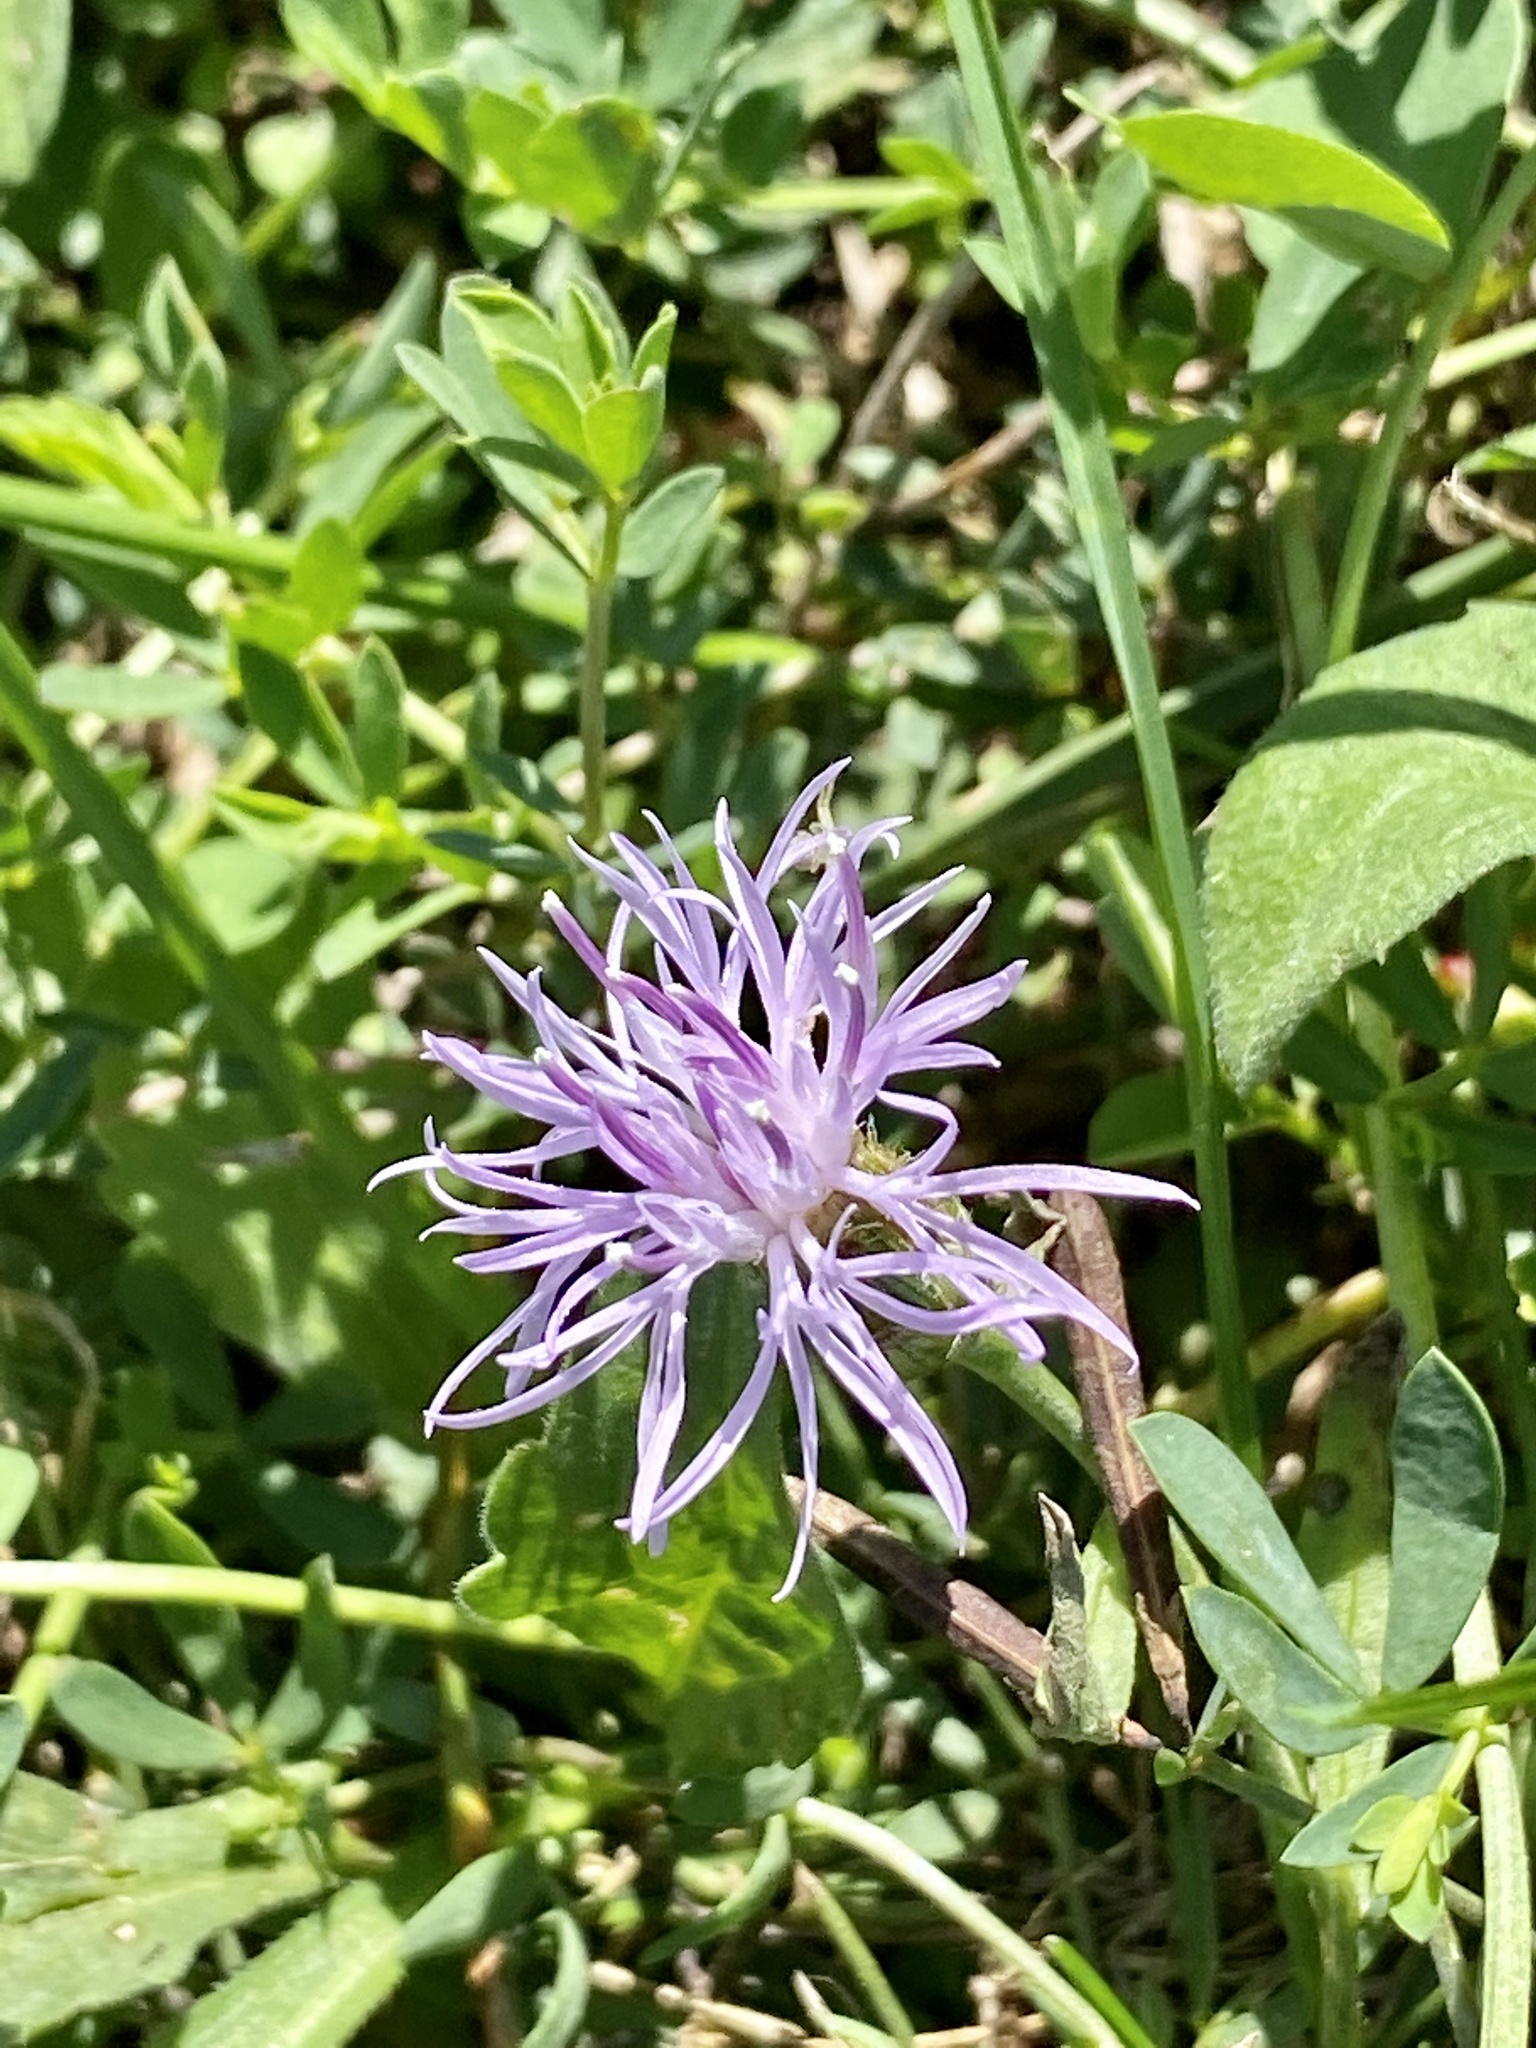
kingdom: Plantae
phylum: Tracheophyta
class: Magnoliopsida
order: Asterales
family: Asteraceae
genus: Centaurea
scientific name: Centaurea stoebe
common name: Spotted knapweed
